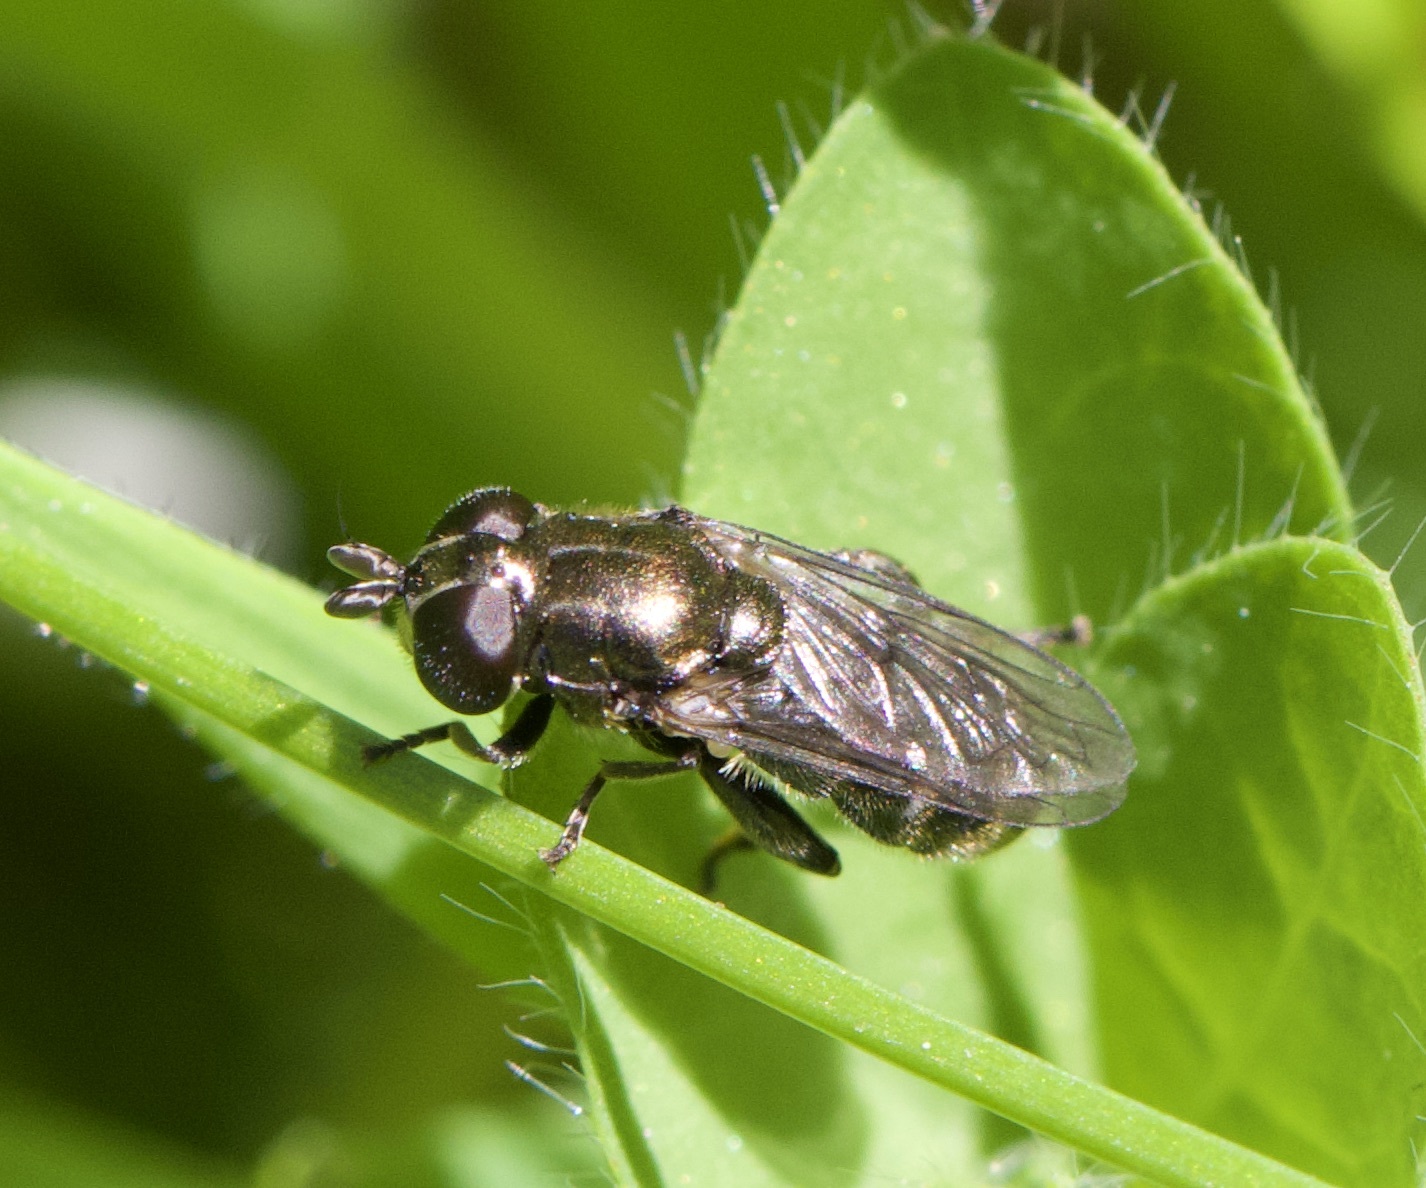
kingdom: Animalia
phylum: Arthropoda
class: Insecta
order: Diptera
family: Syrphidae
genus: Eumerus
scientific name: Eumerus
